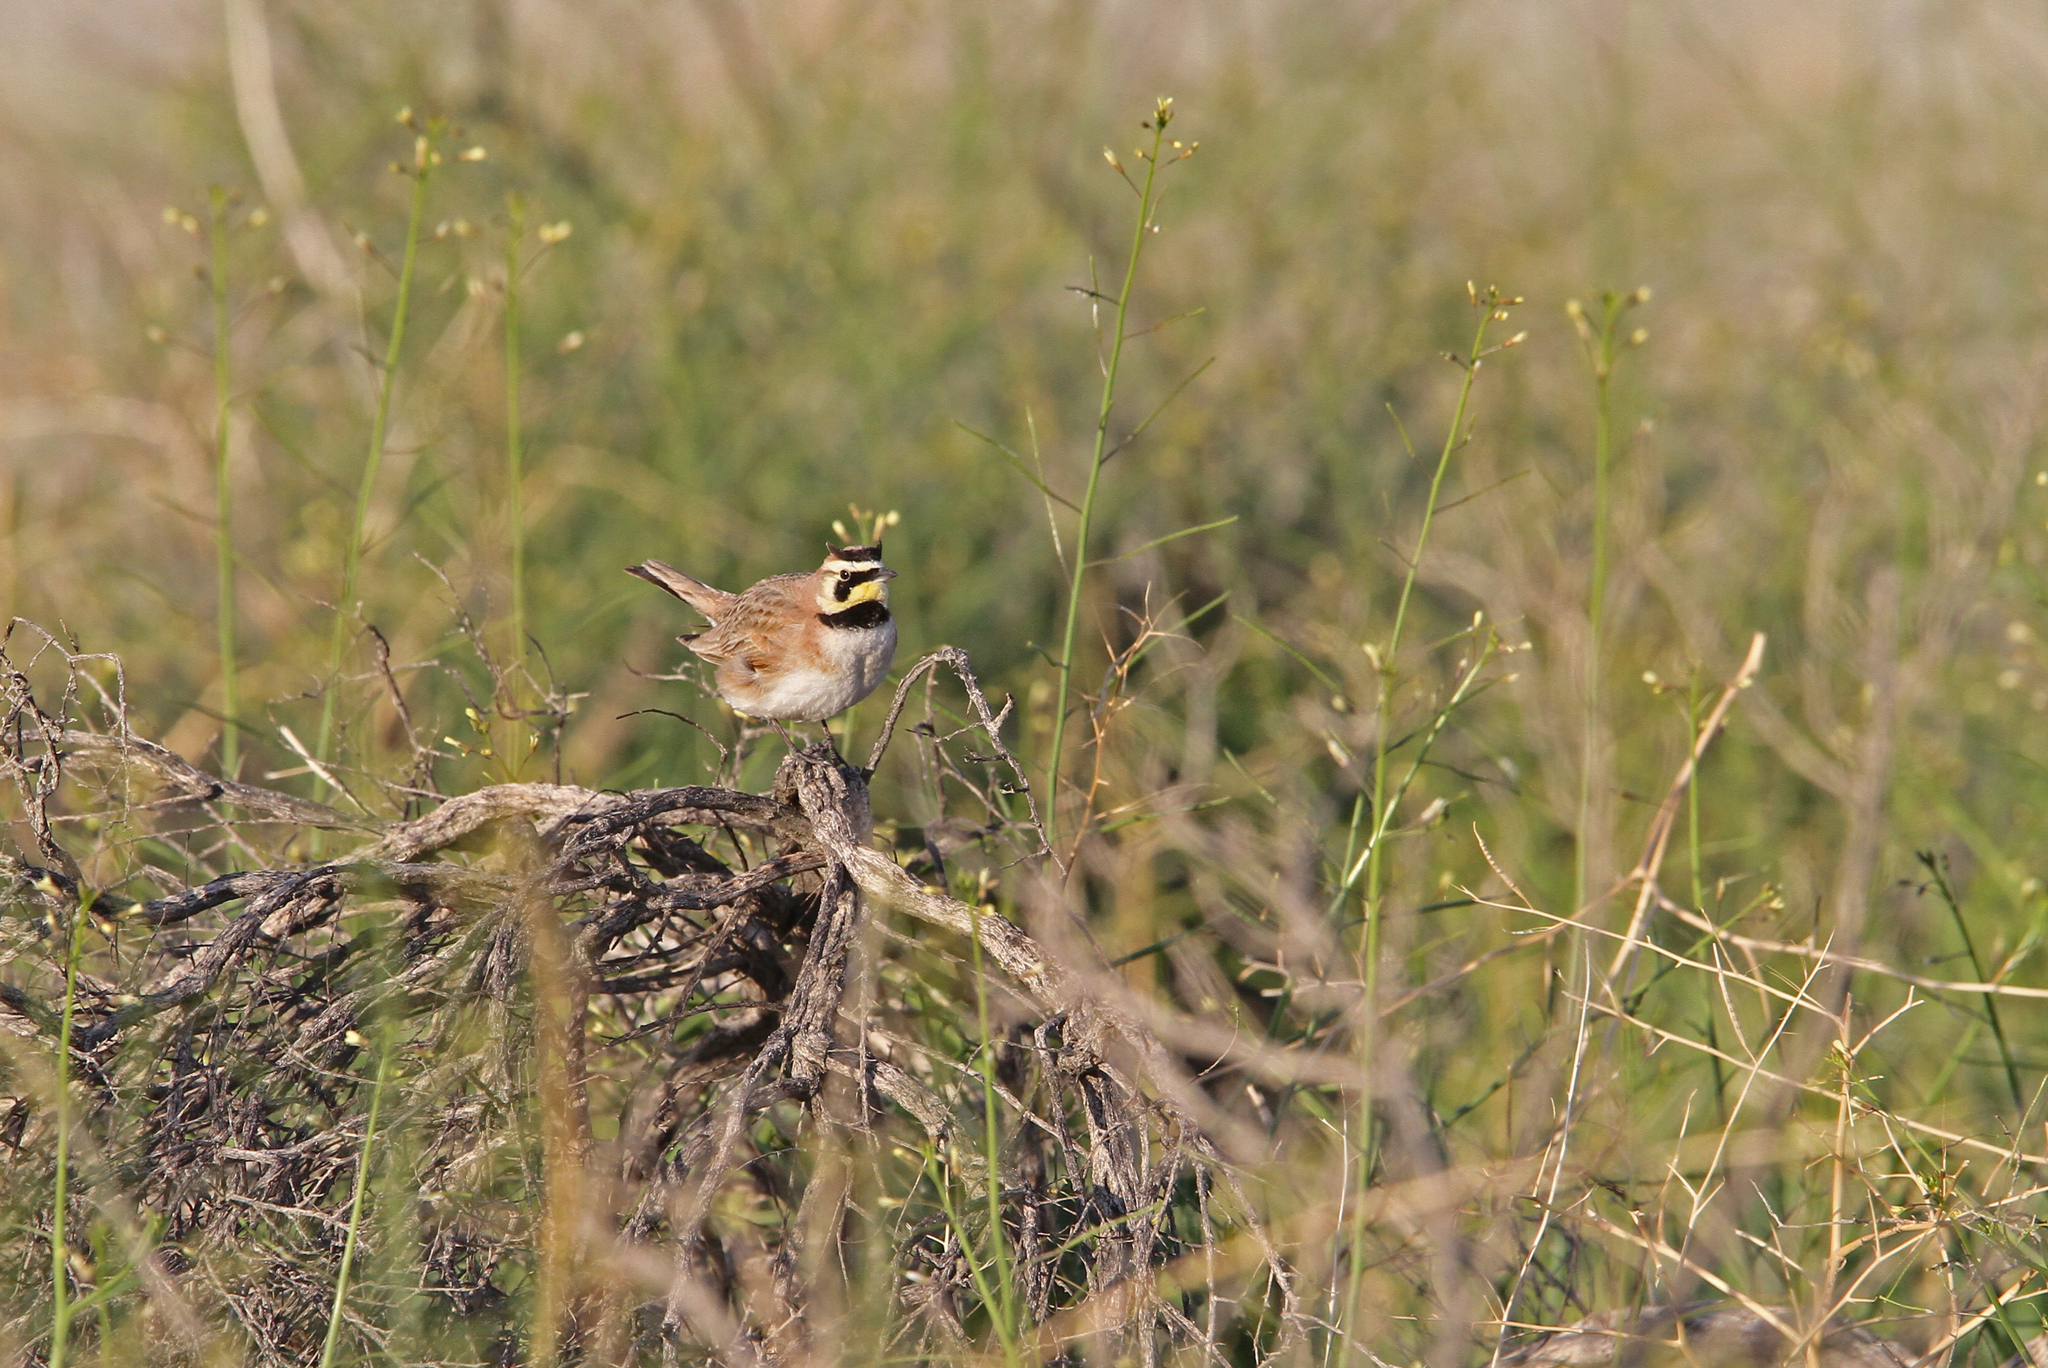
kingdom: Animalia
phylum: Chordata
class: Aves
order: Passeriformes
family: Alaudidae
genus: Eremophila
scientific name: Eremophila alpestris
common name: Horned lark
